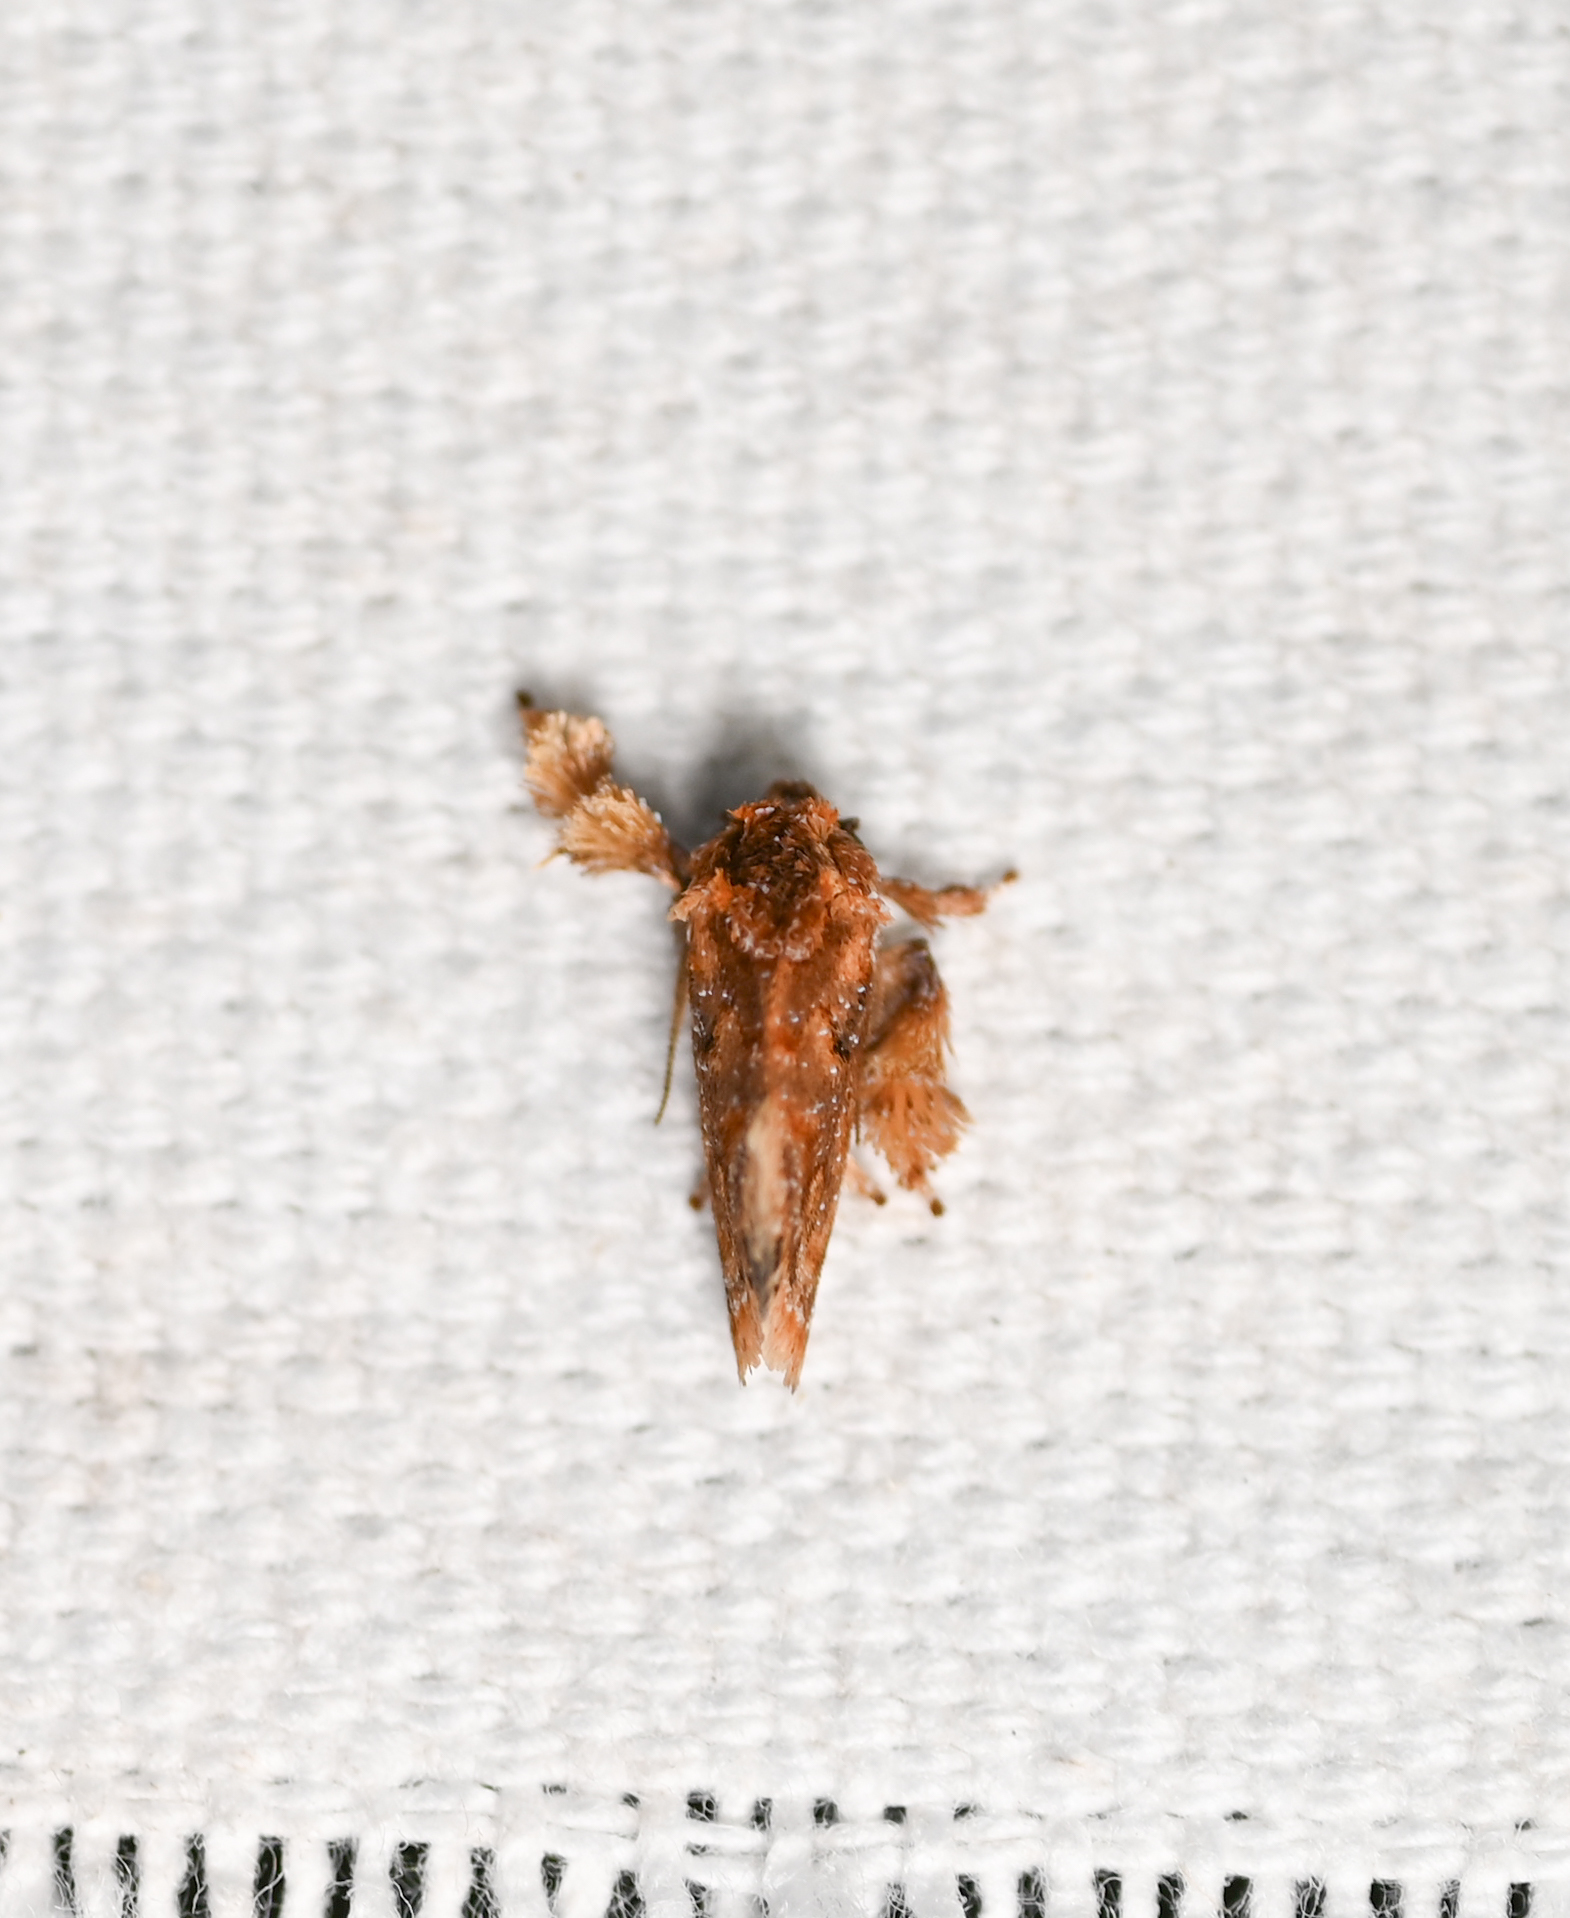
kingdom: Animalia
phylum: Arthropoda
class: Insecta
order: Lepidoptera
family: Limacodidae
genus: Isochaetes
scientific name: Isochaetes beutenmuelleri
